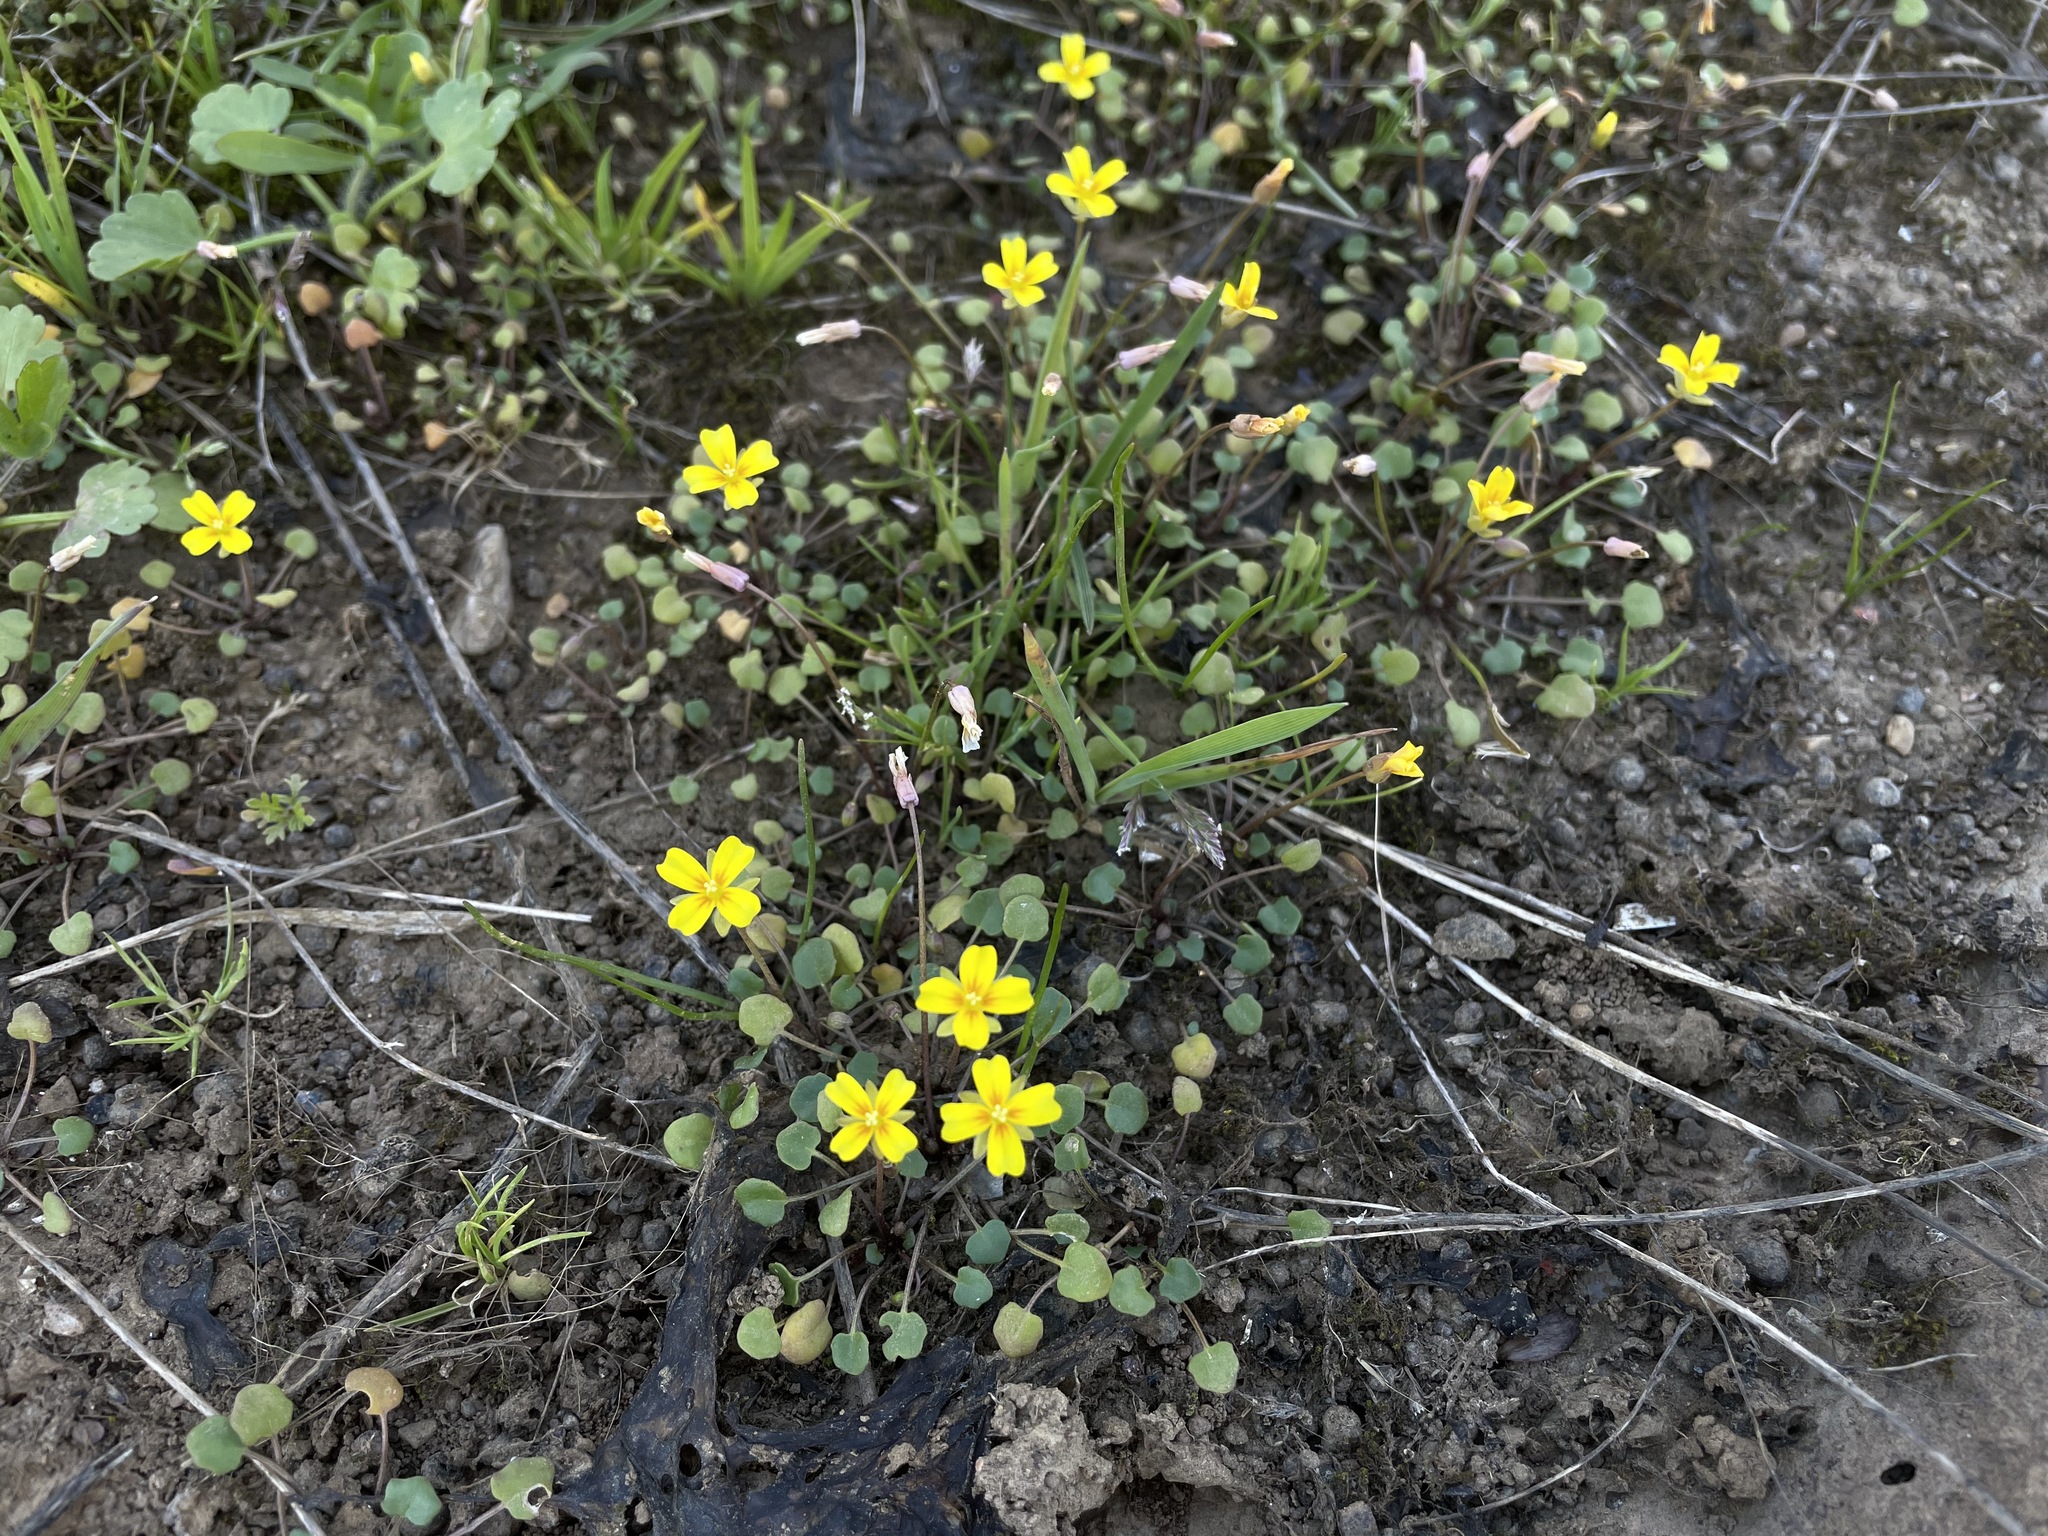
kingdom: Plantae
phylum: Tracheophyta
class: Magnoliopsida
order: Brassicales
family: Brassicaceae
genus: Leavenworthia
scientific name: Leavenworthia exigua
